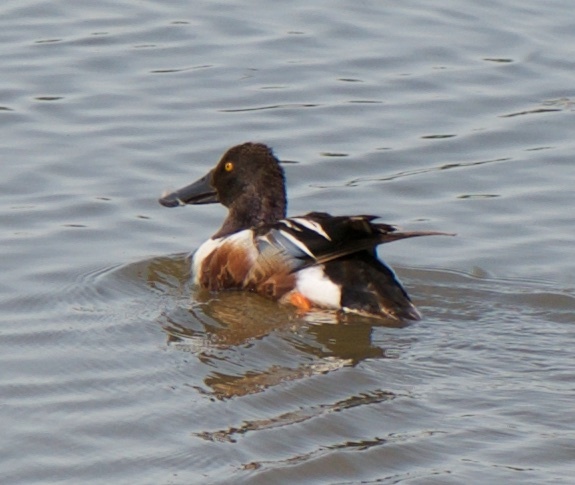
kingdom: Animalia
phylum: Chordata
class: Aves
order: Anseriformes
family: Anatidae
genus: Spatula
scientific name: Spatula clypeata
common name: Northern shoveler
